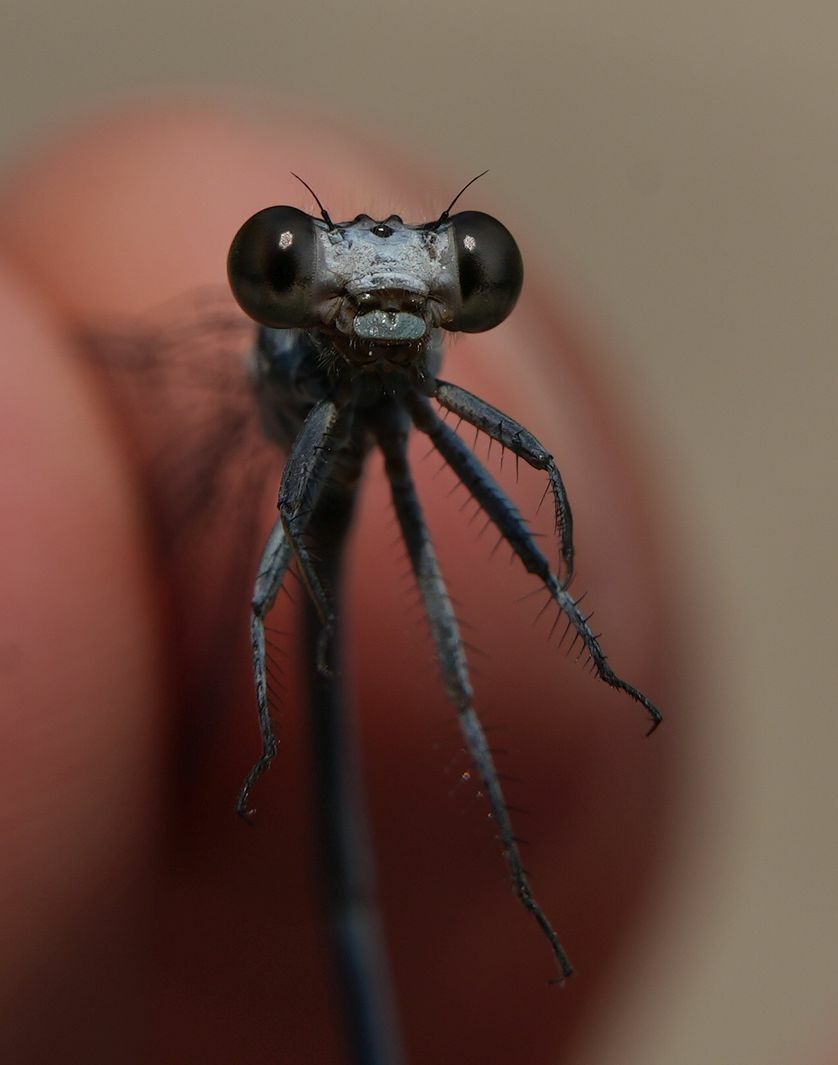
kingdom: Animalia
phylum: Arthropoda
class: Insecta
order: Odonata
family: Coenagrionidae
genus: Argia
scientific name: Argia moesta
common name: Powdered dancer
